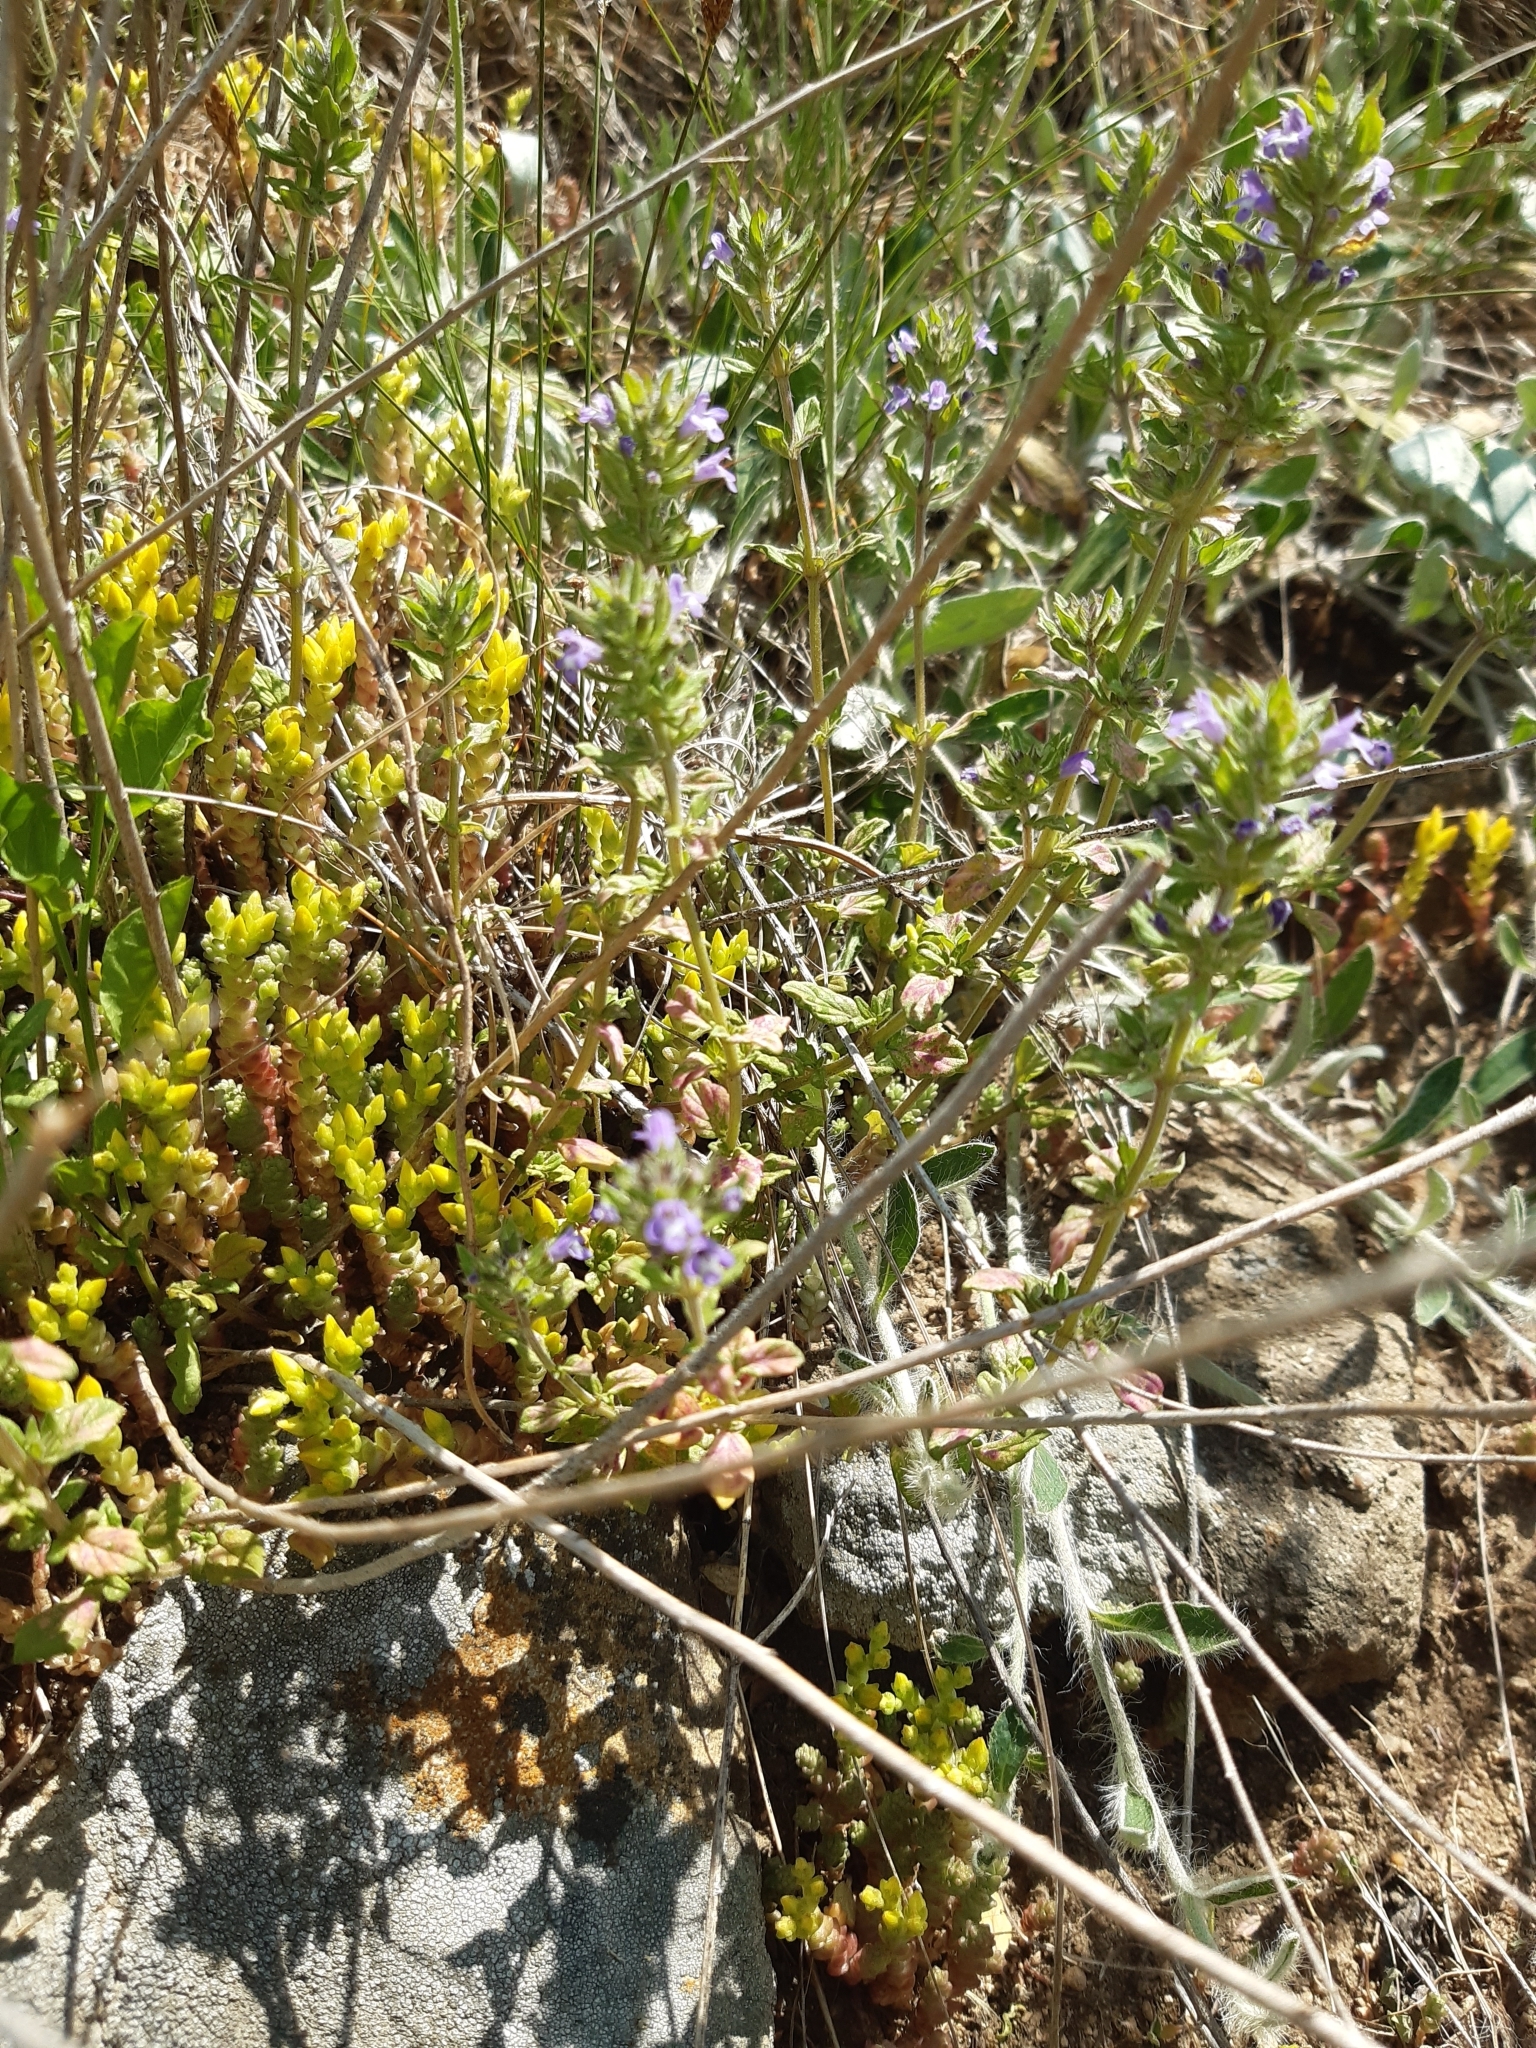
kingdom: Plantae
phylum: Tracheophyta
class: Magnoliopsida
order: Lamiales
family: Lamiaceae
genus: Clinopodium
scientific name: Clinopodium acinos
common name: Basil thyme
